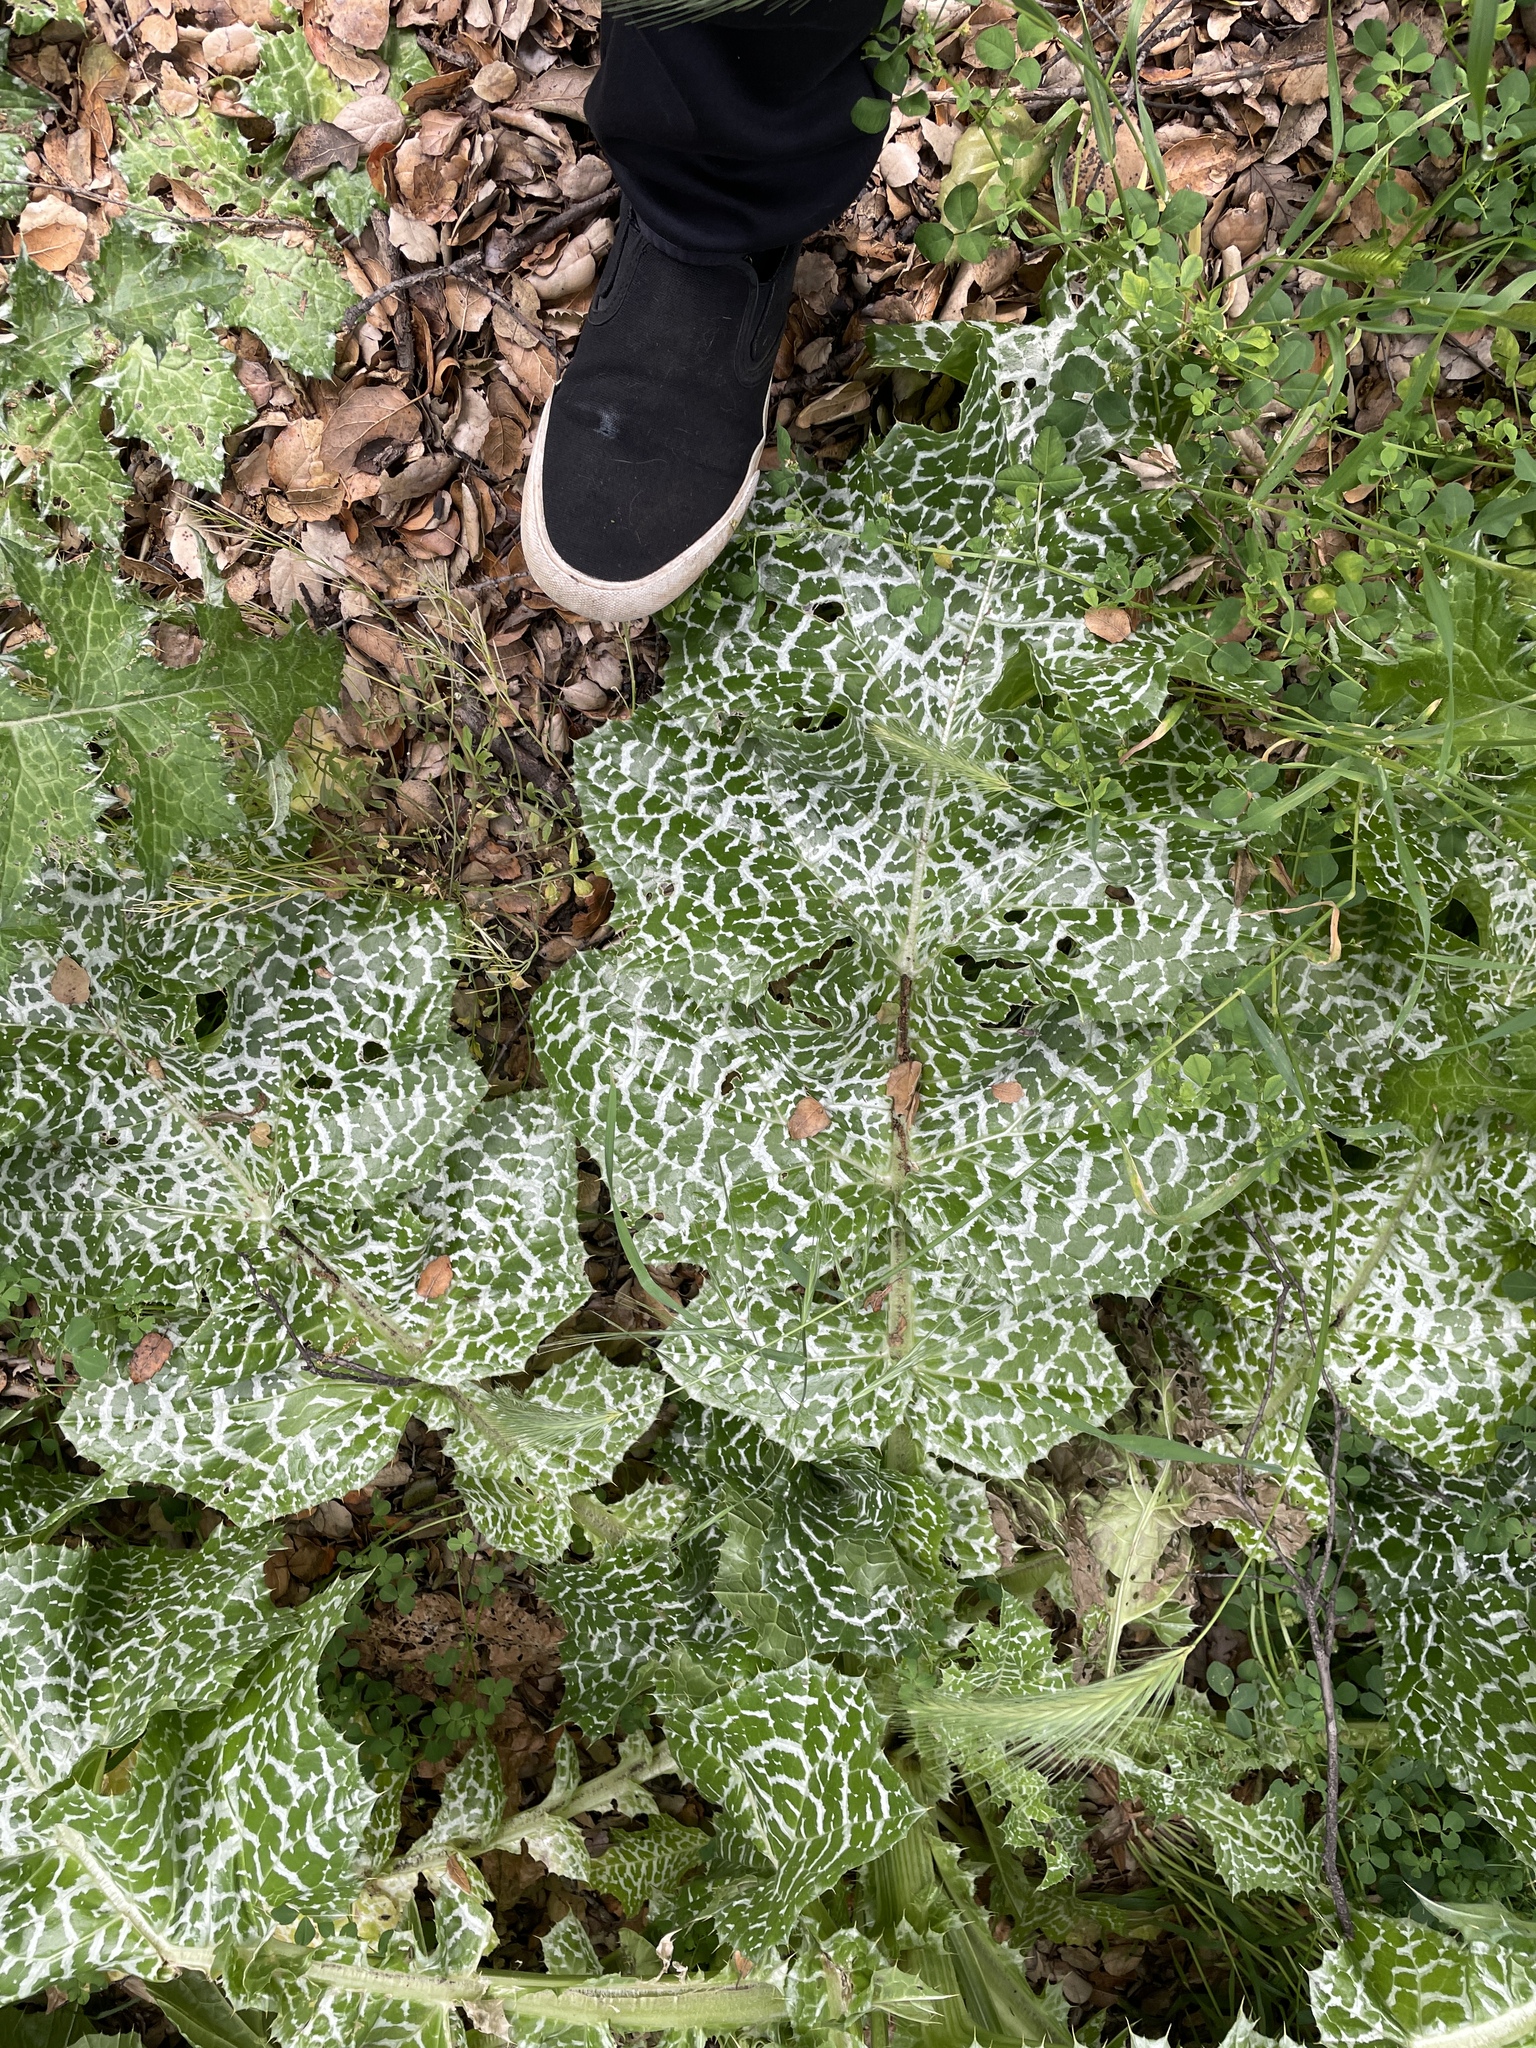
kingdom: Plantae
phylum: Tracheophyta
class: Magnoliopsida
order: Asterales
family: Asteraceae
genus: Silybum
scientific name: Silybum marianum
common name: Milk thistle
